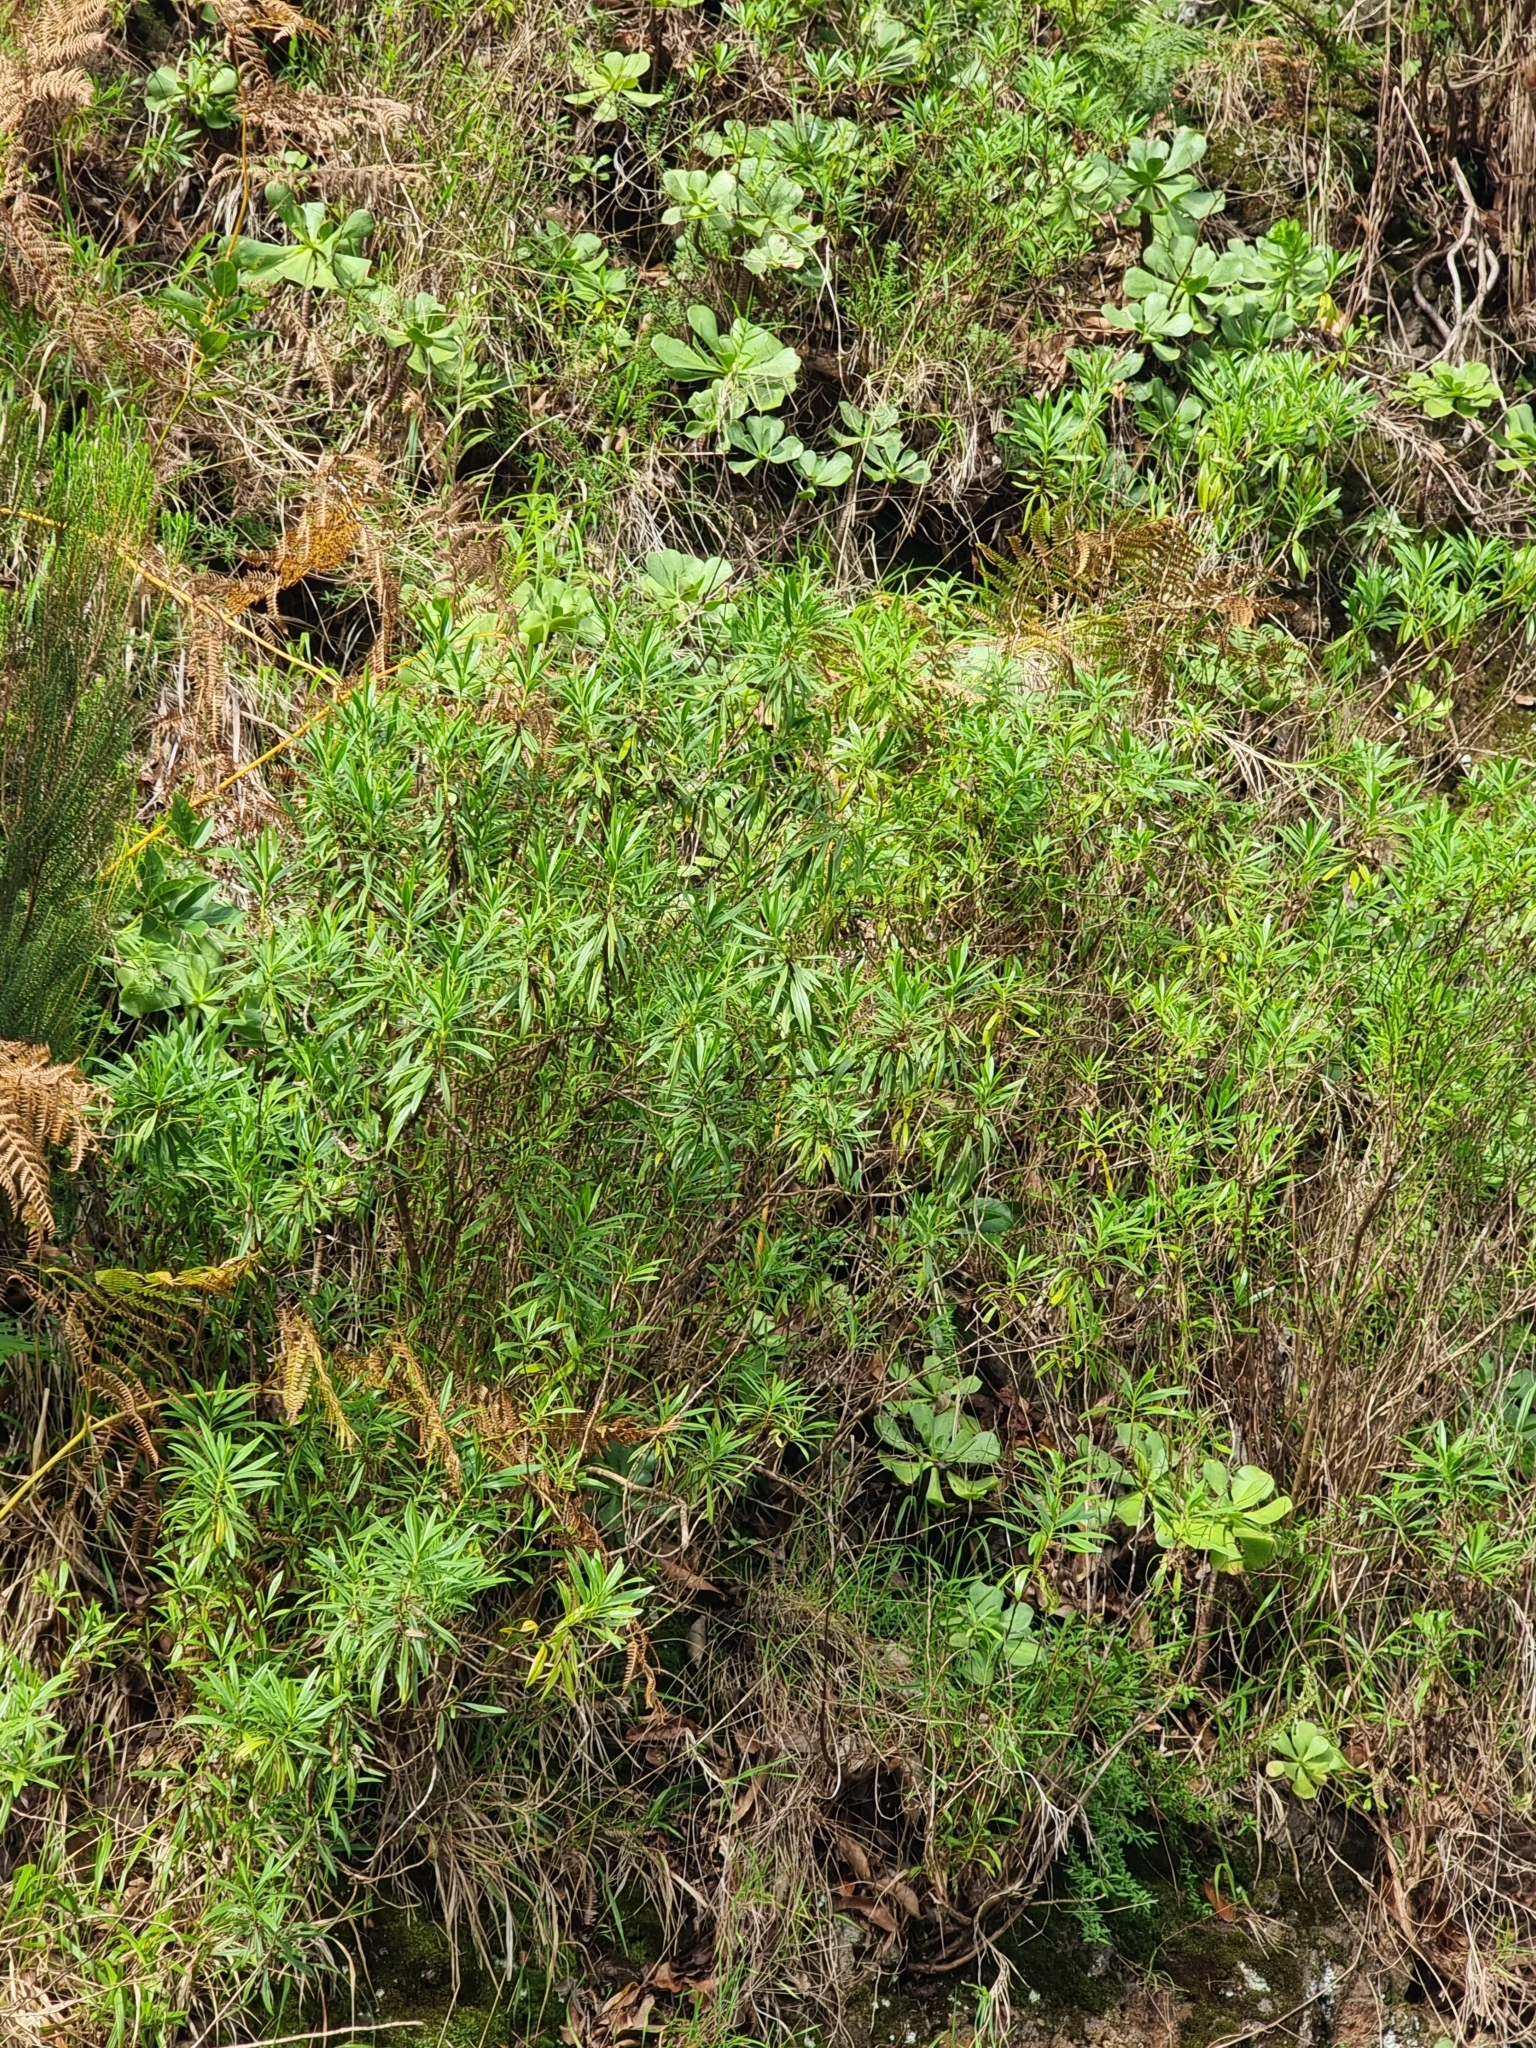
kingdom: Plantae
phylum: Tracheophyta
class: Magnoliopsida
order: Lamiales
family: Plantaginaceae
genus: Globularia
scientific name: Globularia salicina
